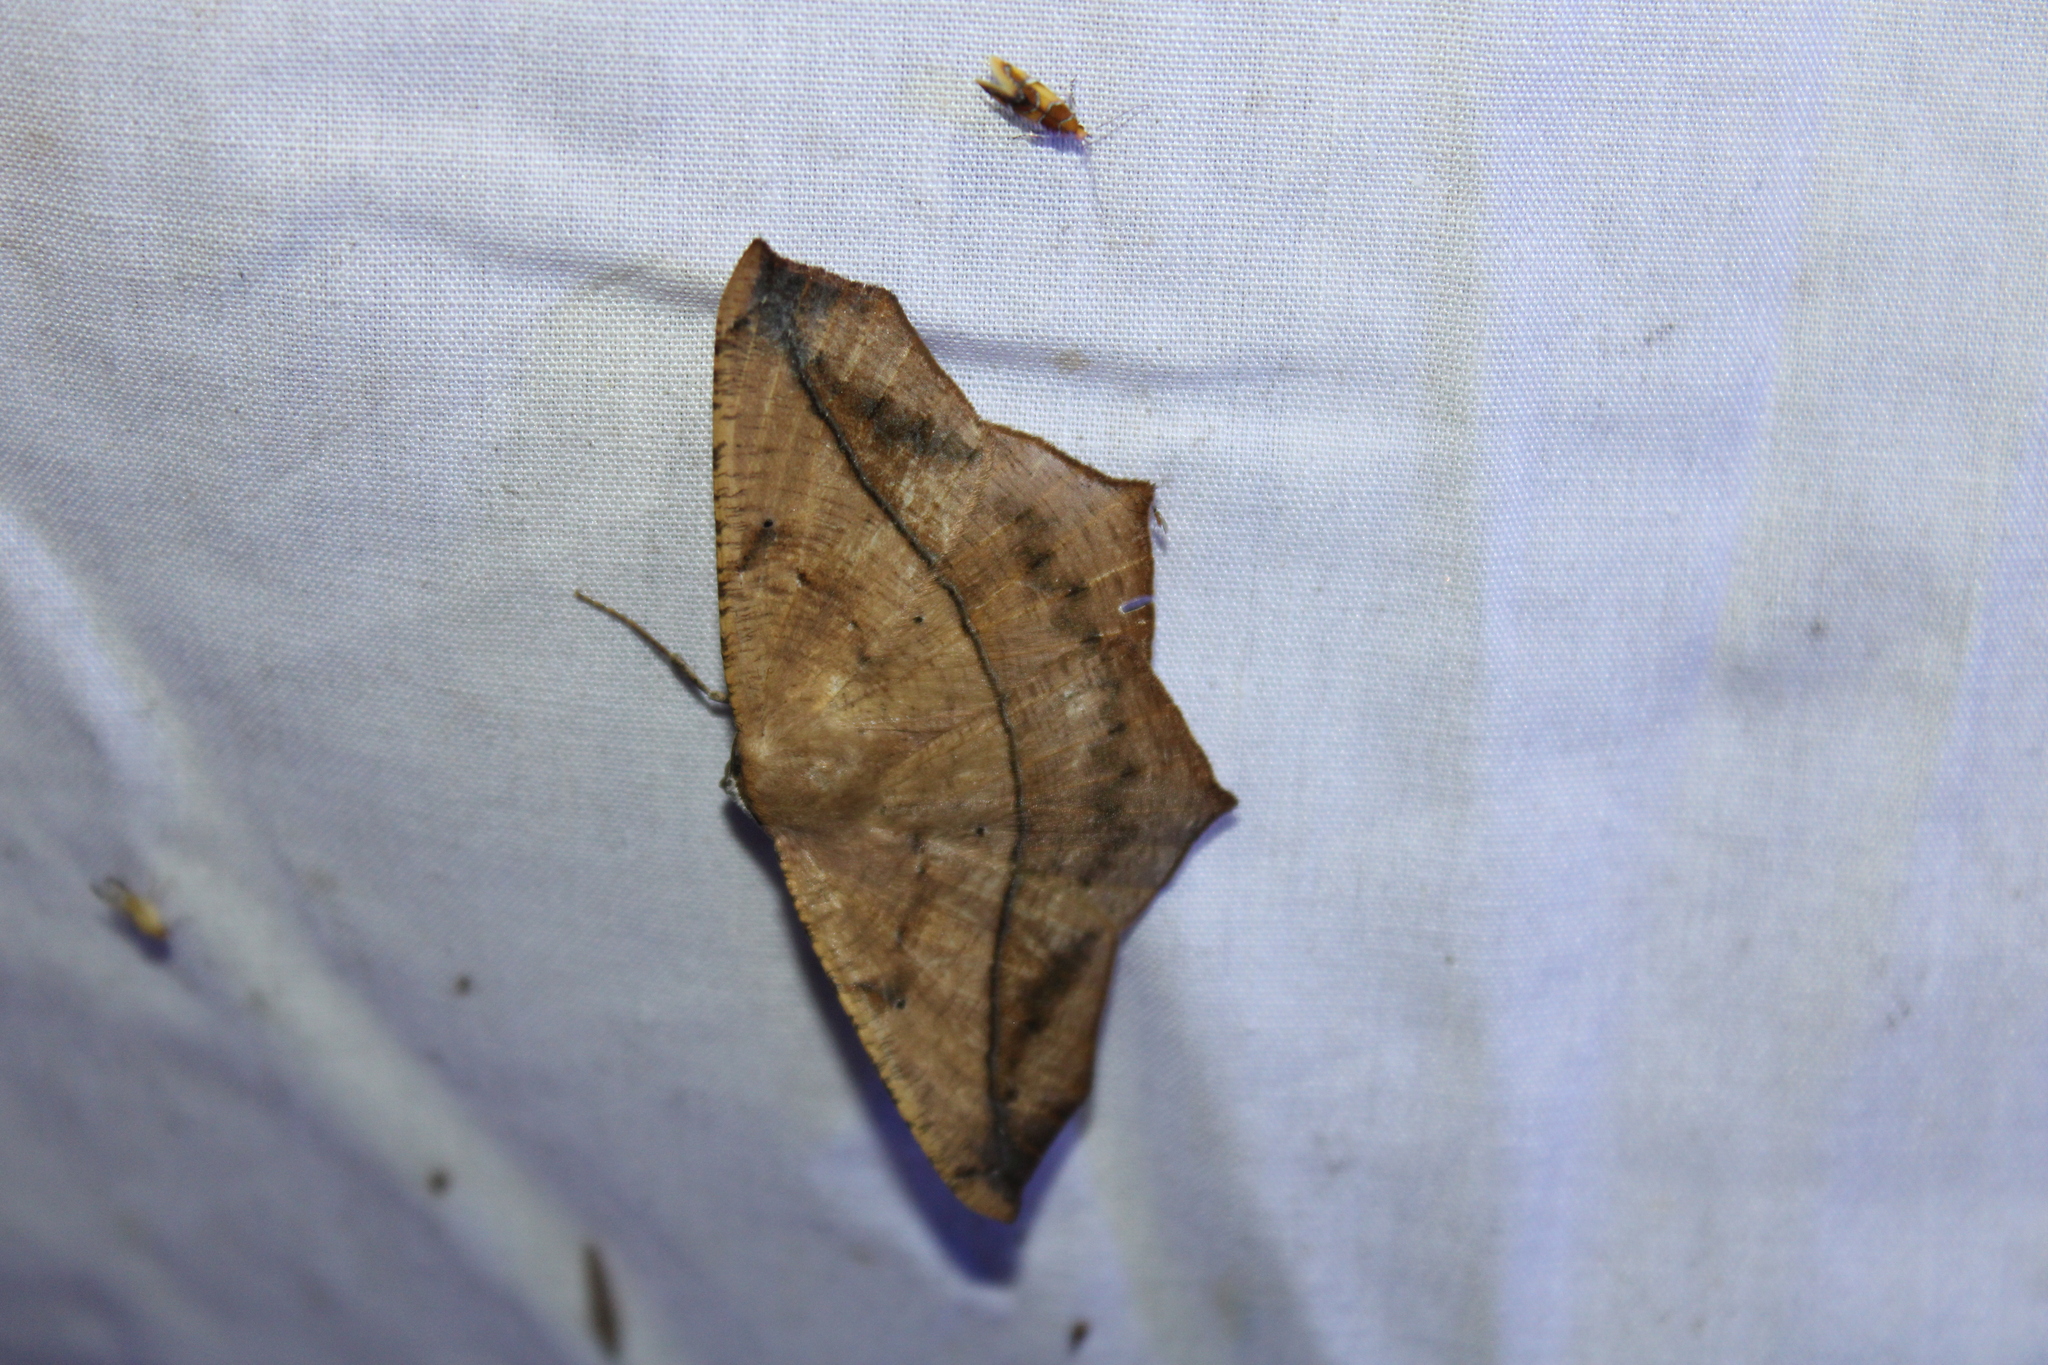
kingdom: Animalia
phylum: Arthropoda
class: Insecta
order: Lepidoptera
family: Geometridae
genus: Prochoerodes
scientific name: Prochoerodes lineola
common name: Large maple spanworm
